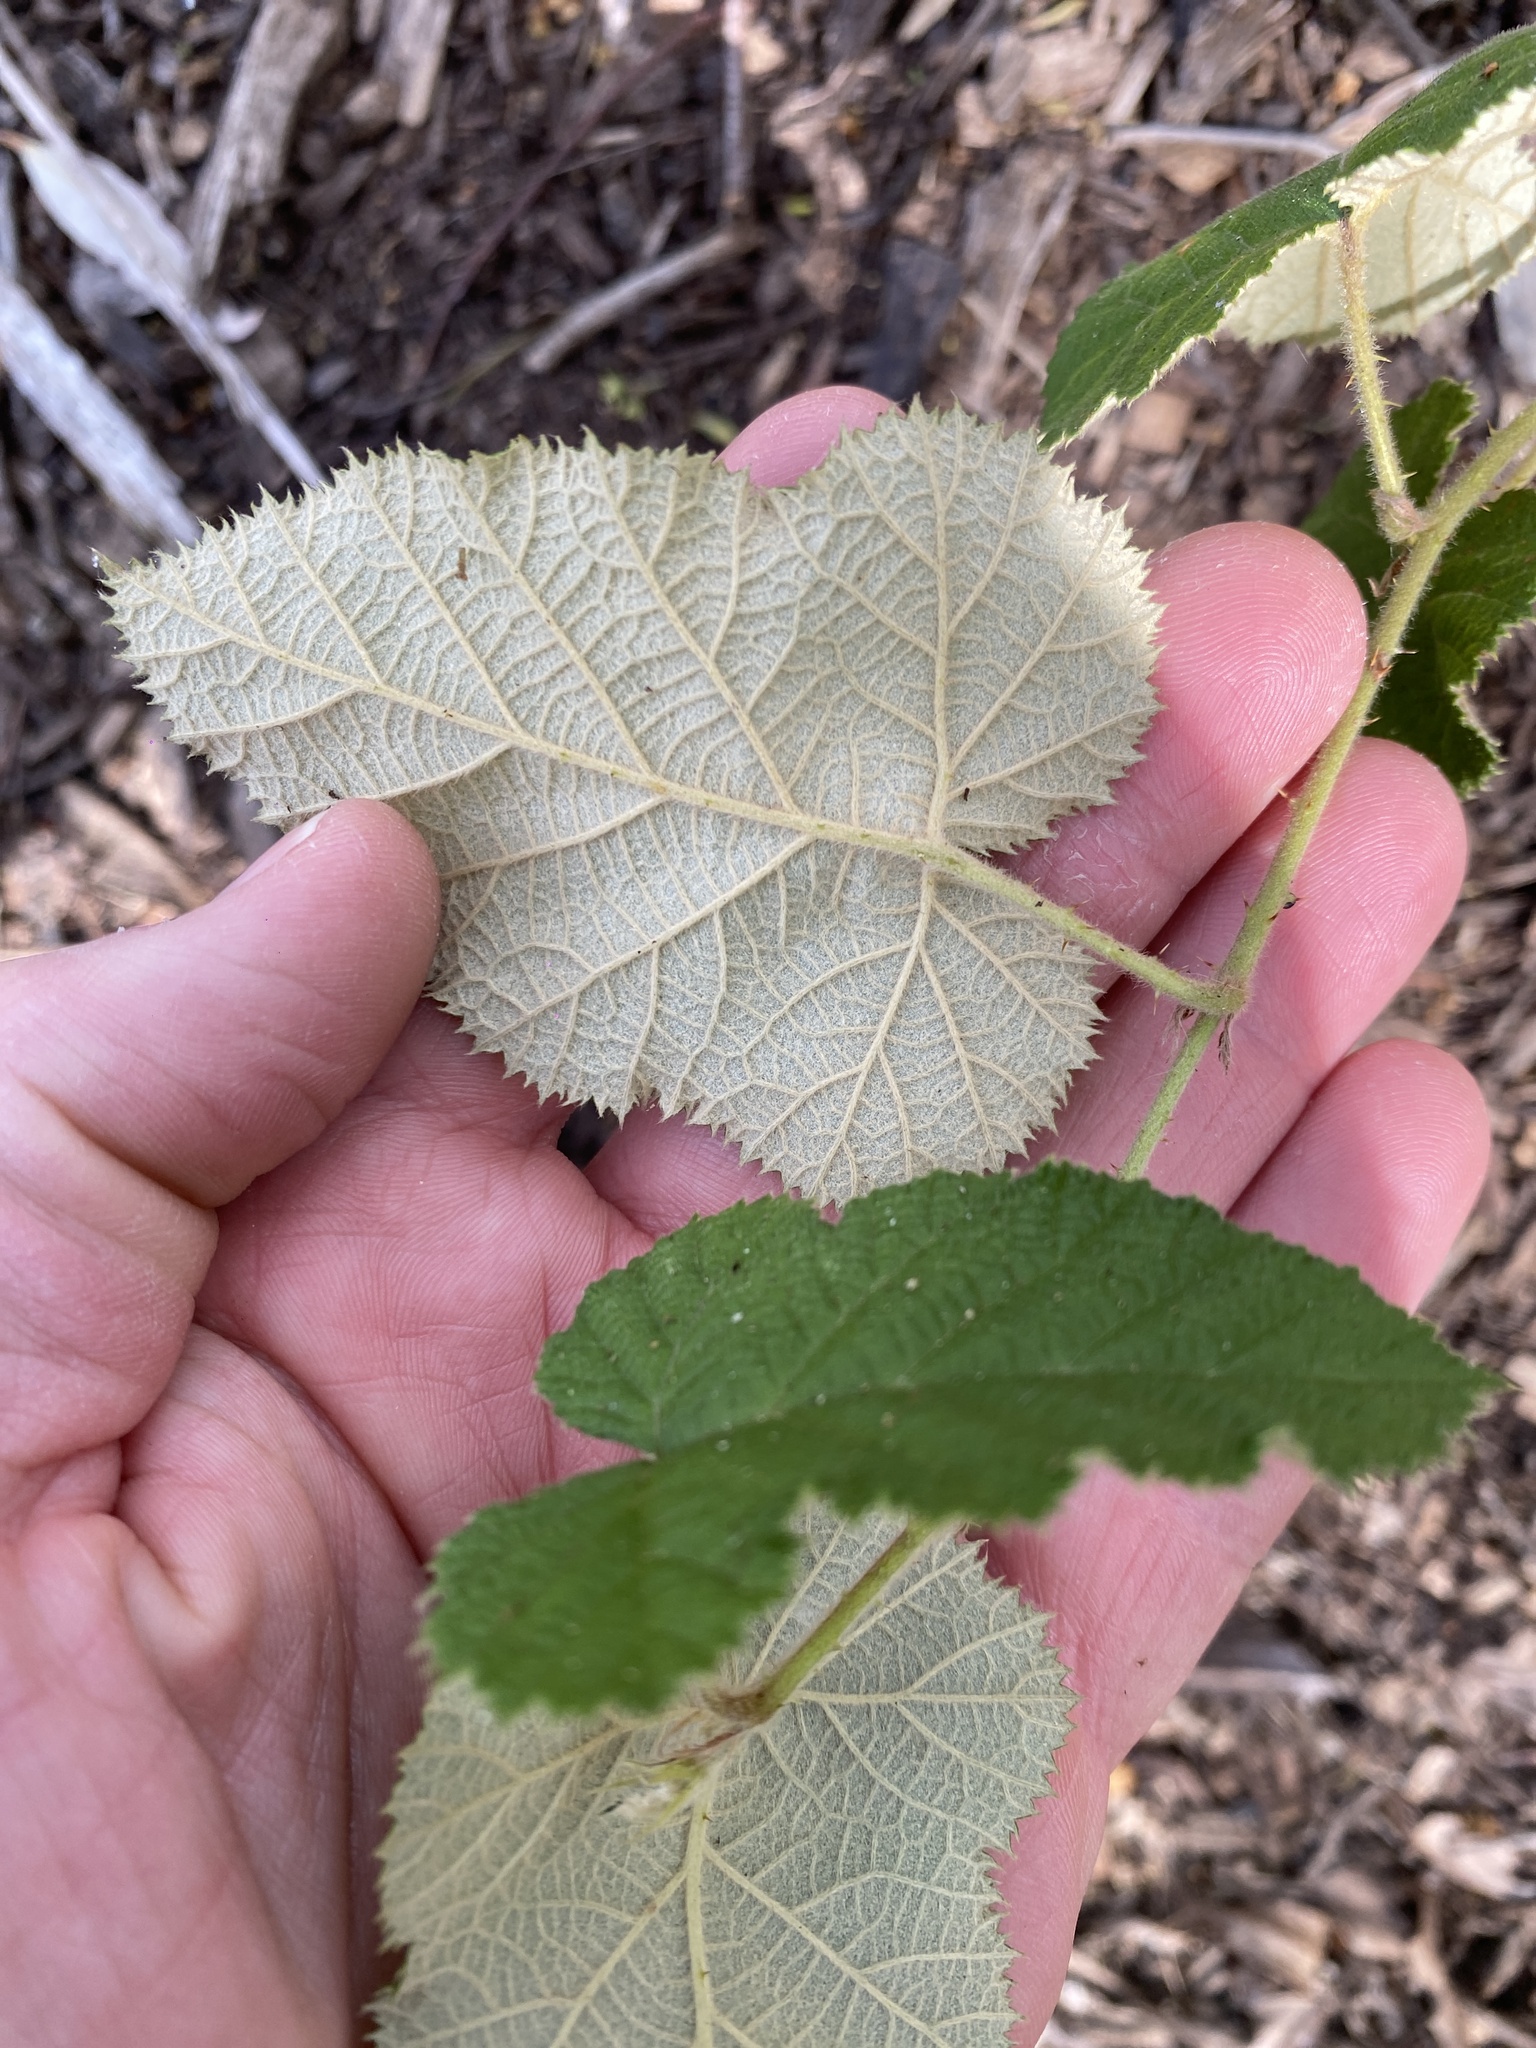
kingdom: Plantae
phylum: Tracheophyta
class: Magnoliopsida
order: Rosales
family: Rosaceae
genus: Rubus
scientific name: Rubus moluccanus
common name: Wild raspberry
